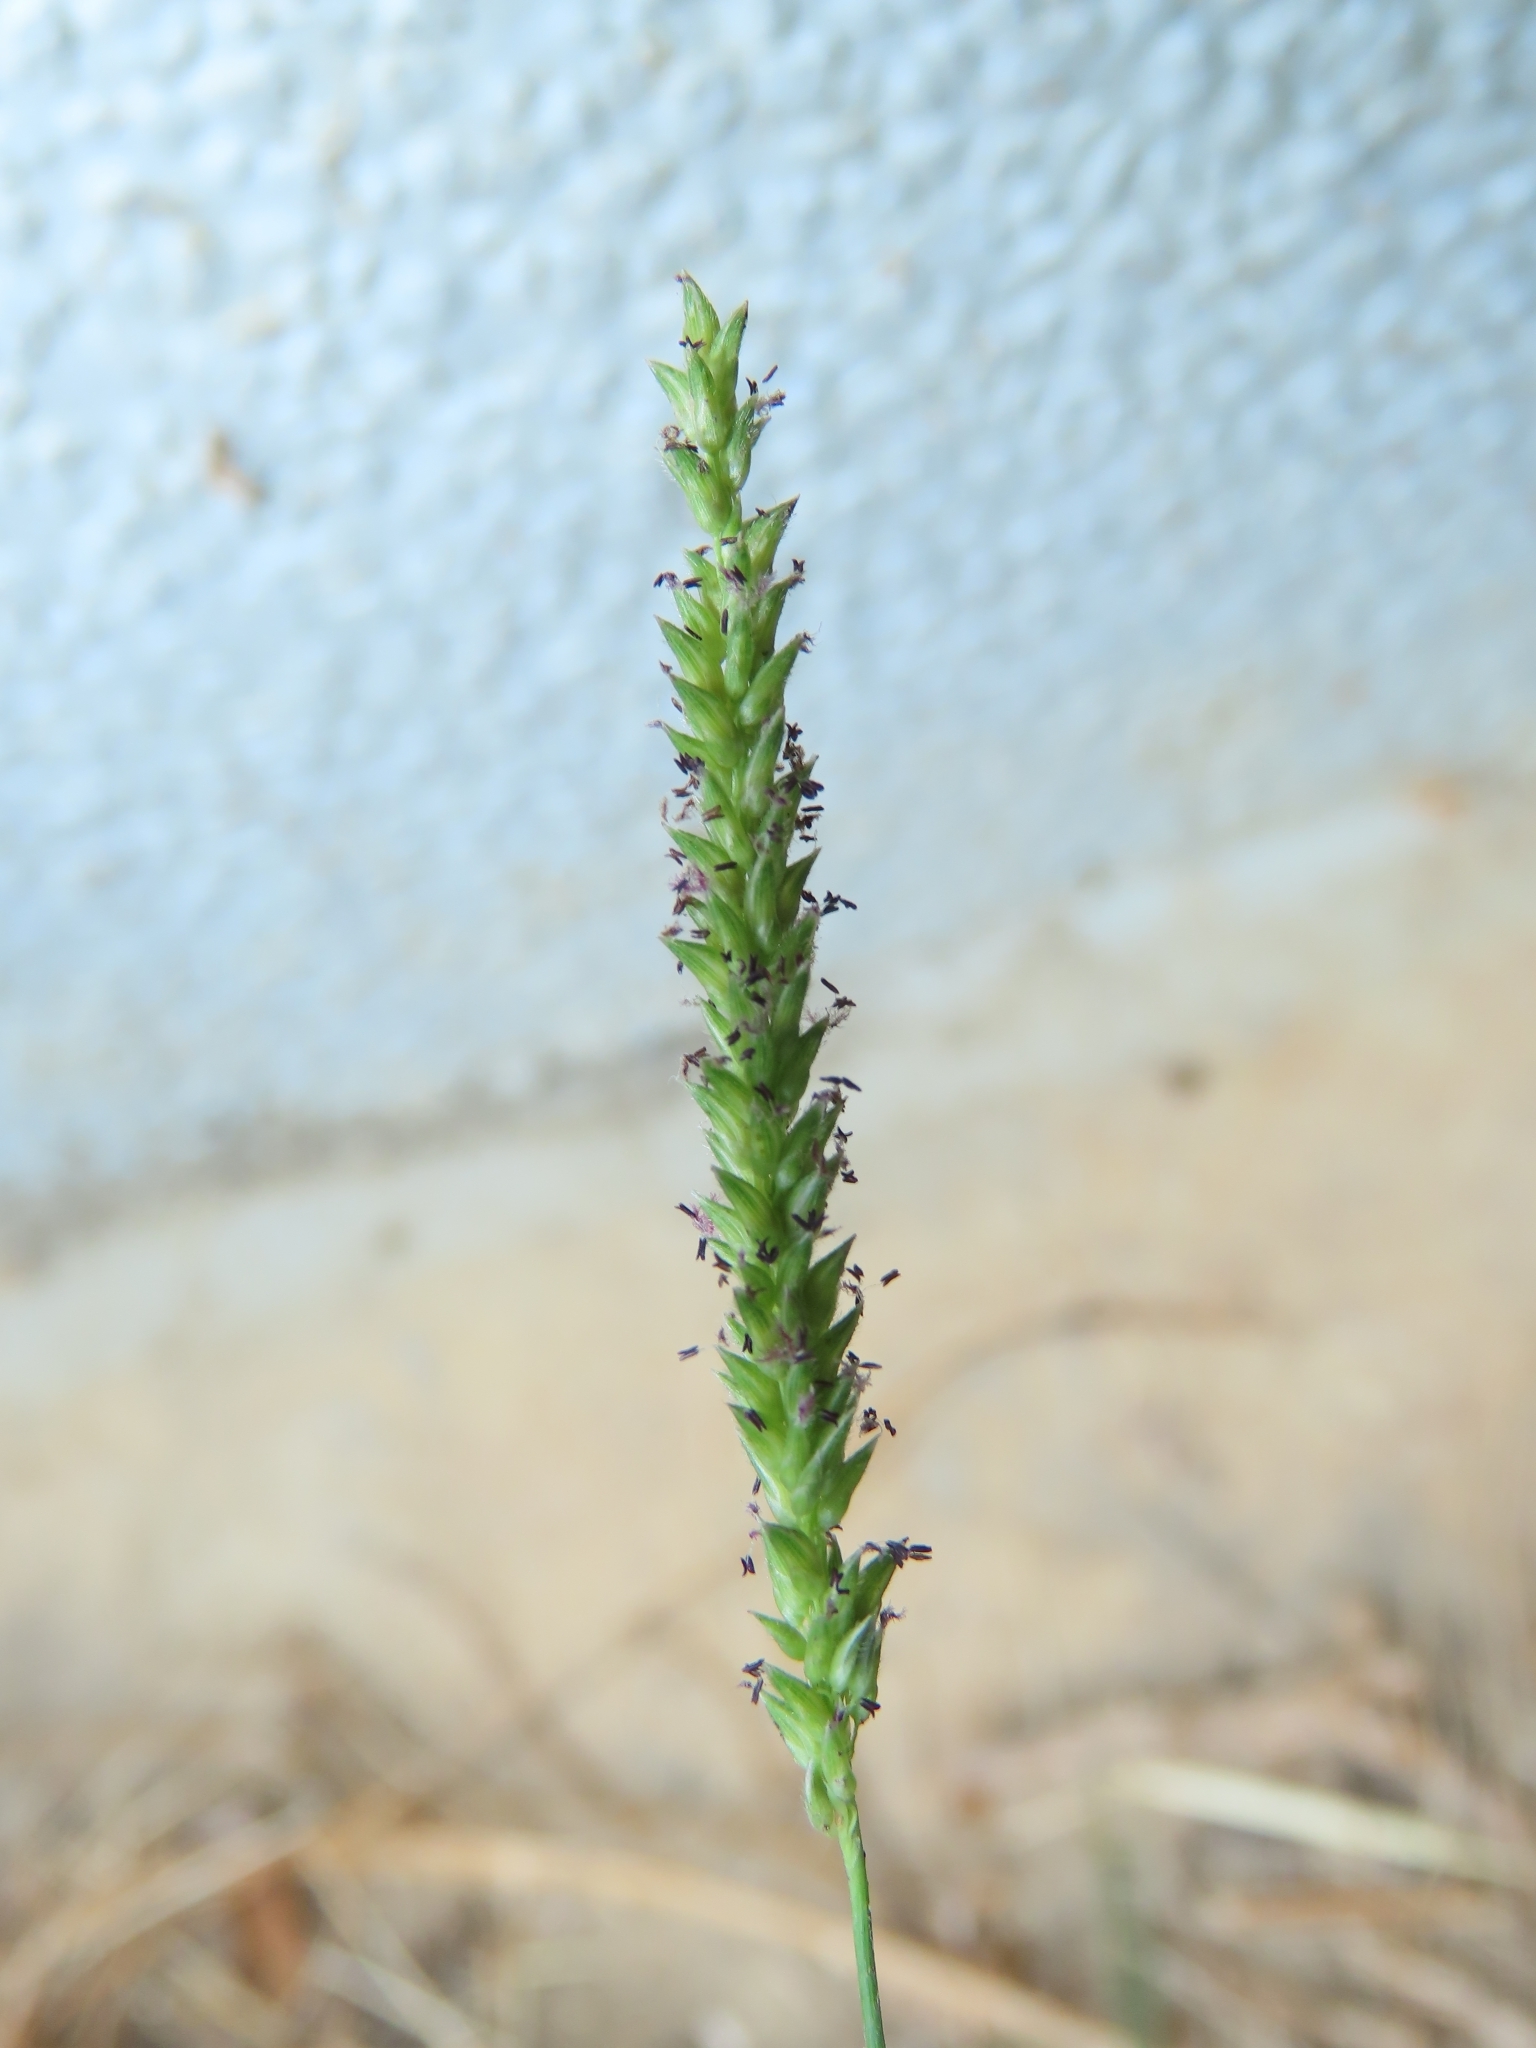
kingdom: Plantae
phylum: Tracheophyta
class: Liliopsida
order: Poales
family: Poaceae
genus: Sacciolepis
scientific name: Sacciolepis indica
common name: Glenwoodgrass
